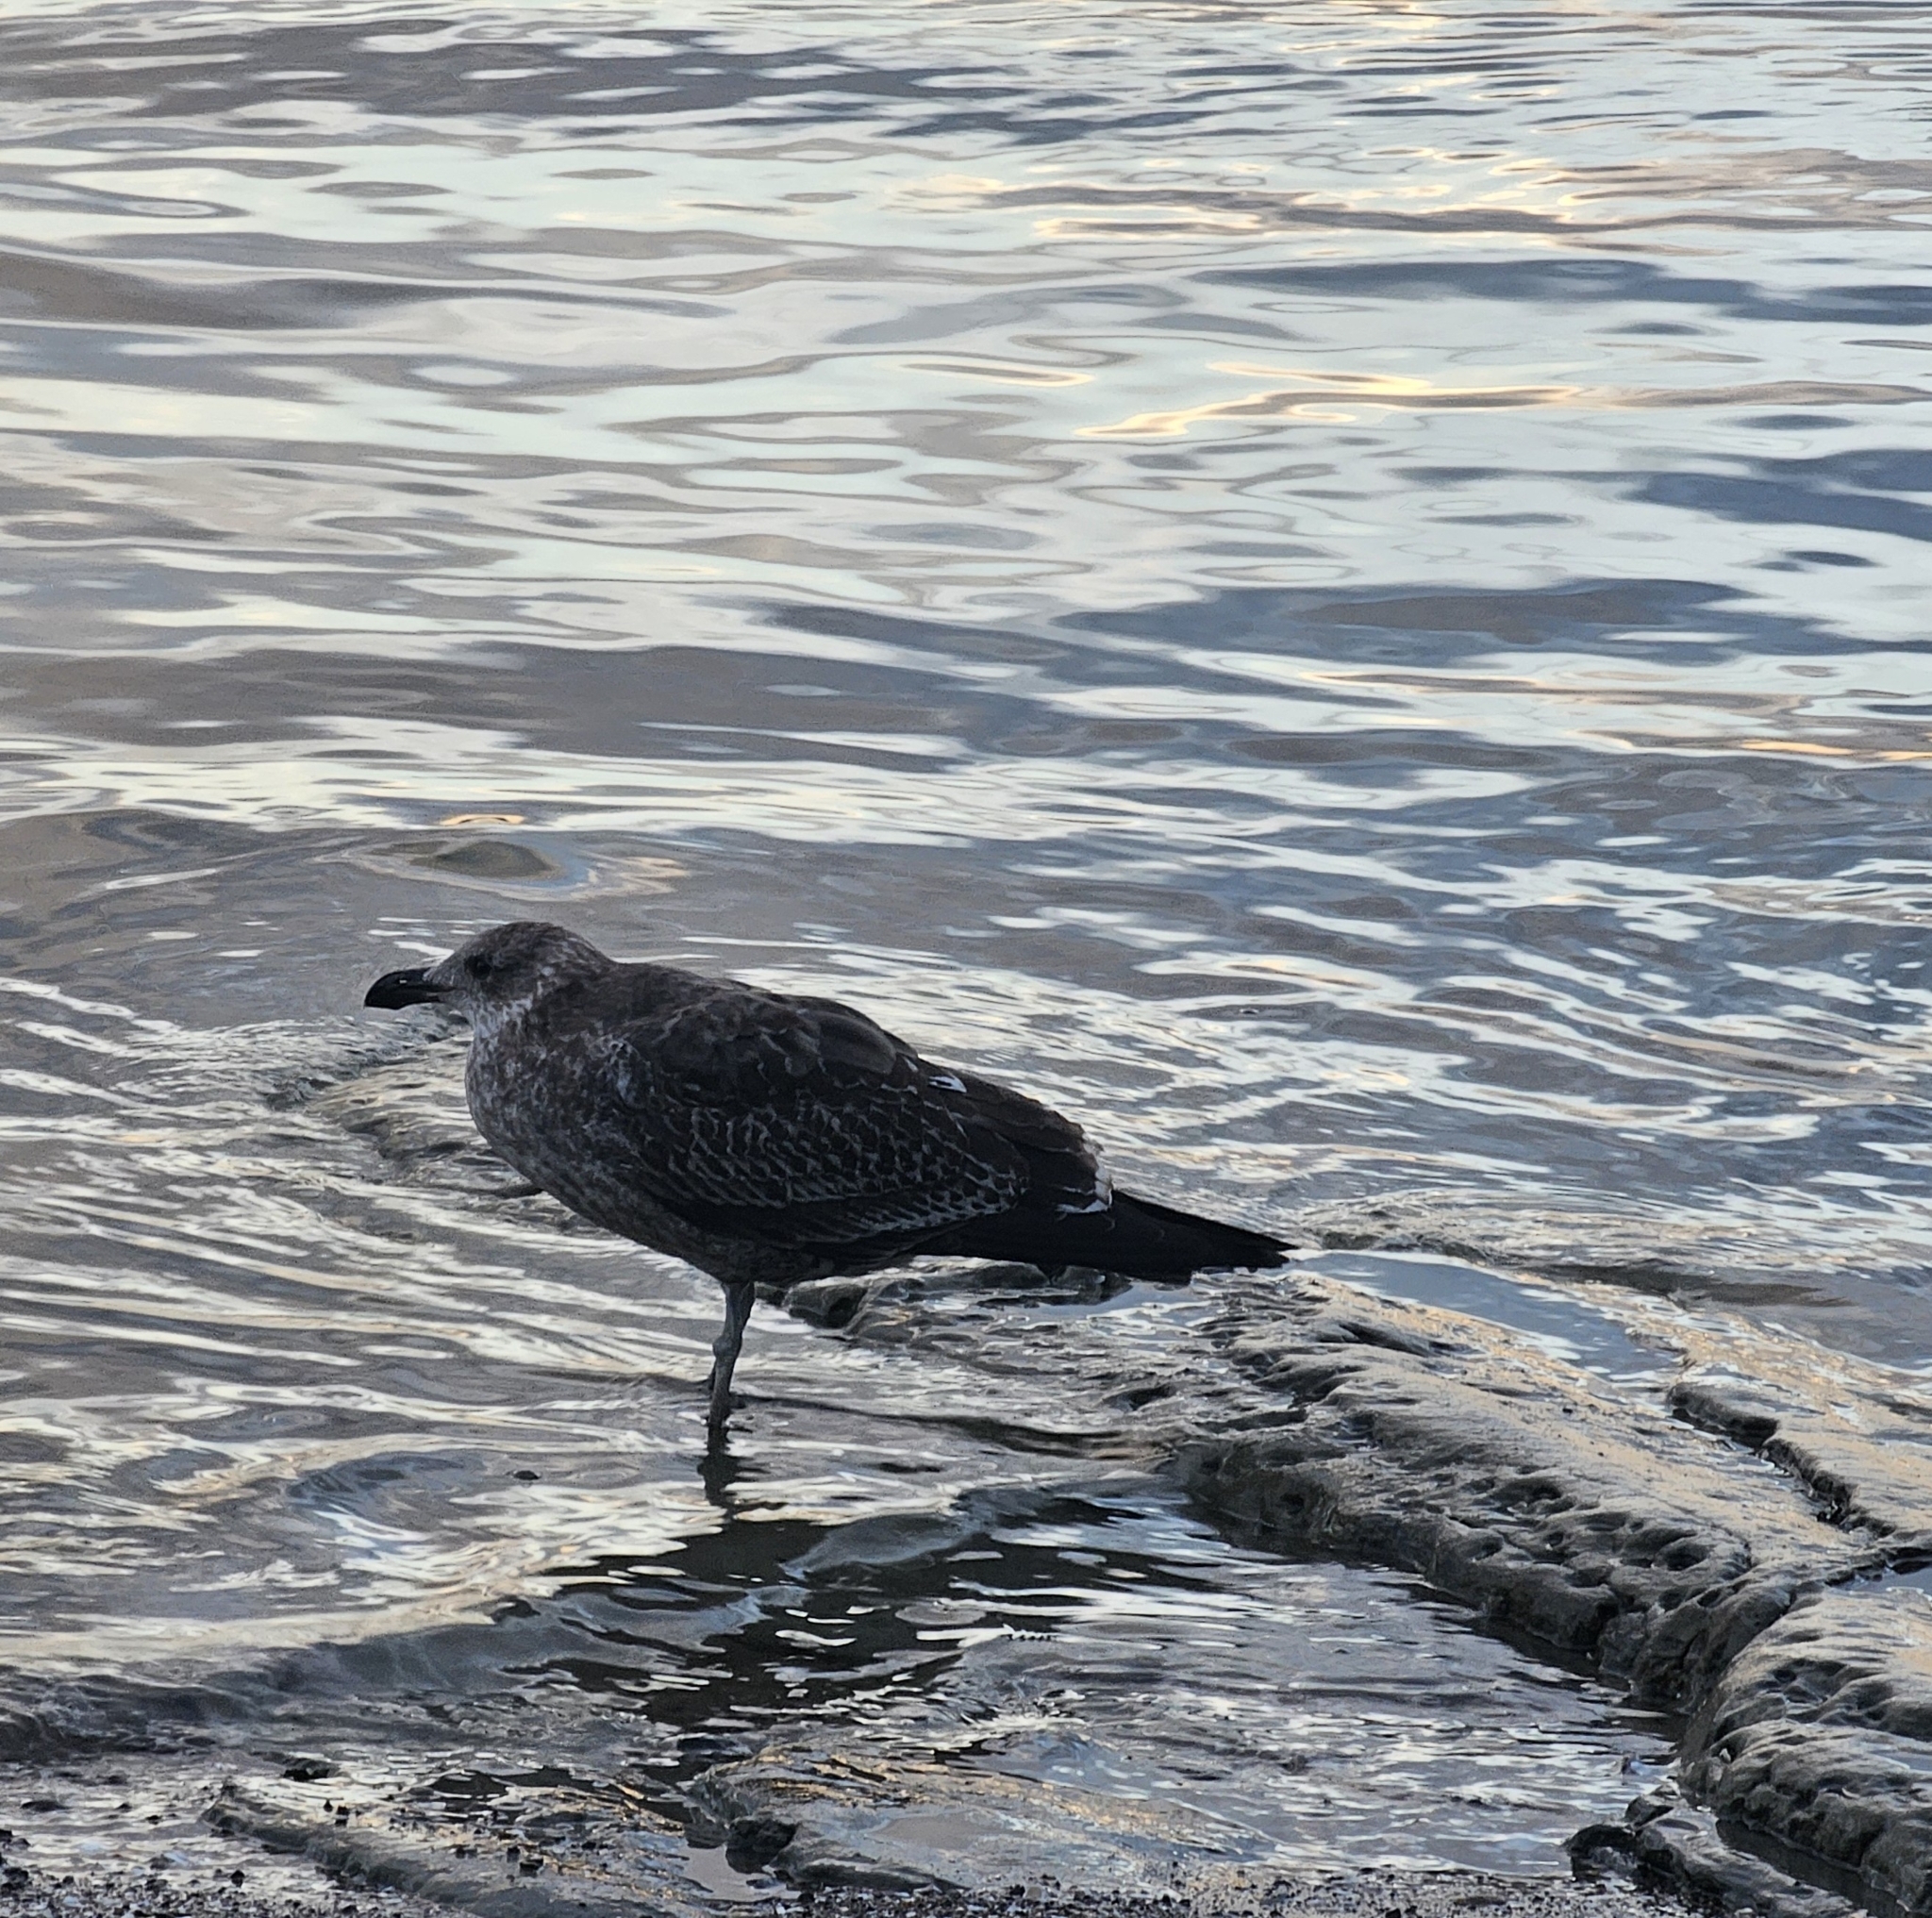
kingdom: Animalia
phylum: Chordata
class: Aves
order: Charadriiformes
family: Laridae
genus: Larus
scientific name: Larus dominicanus
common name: Kelp gull
